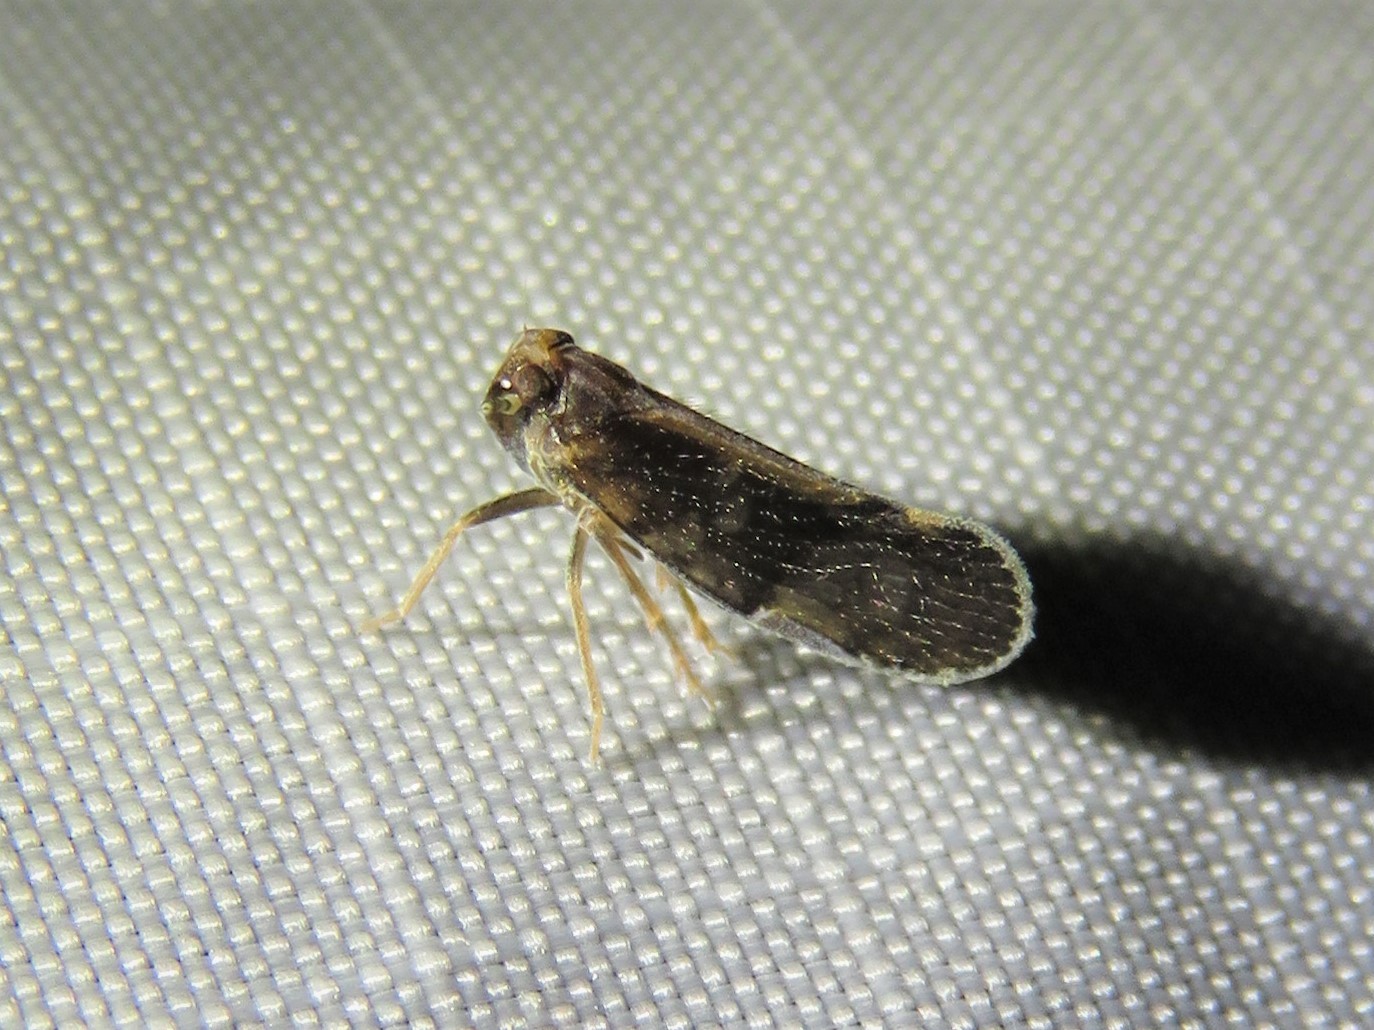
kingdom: Animalia
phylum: Arthropoda
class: Insecta
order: Hemiptera
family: Cixiidae
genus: Pintalia
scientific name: Pintalia delicata
